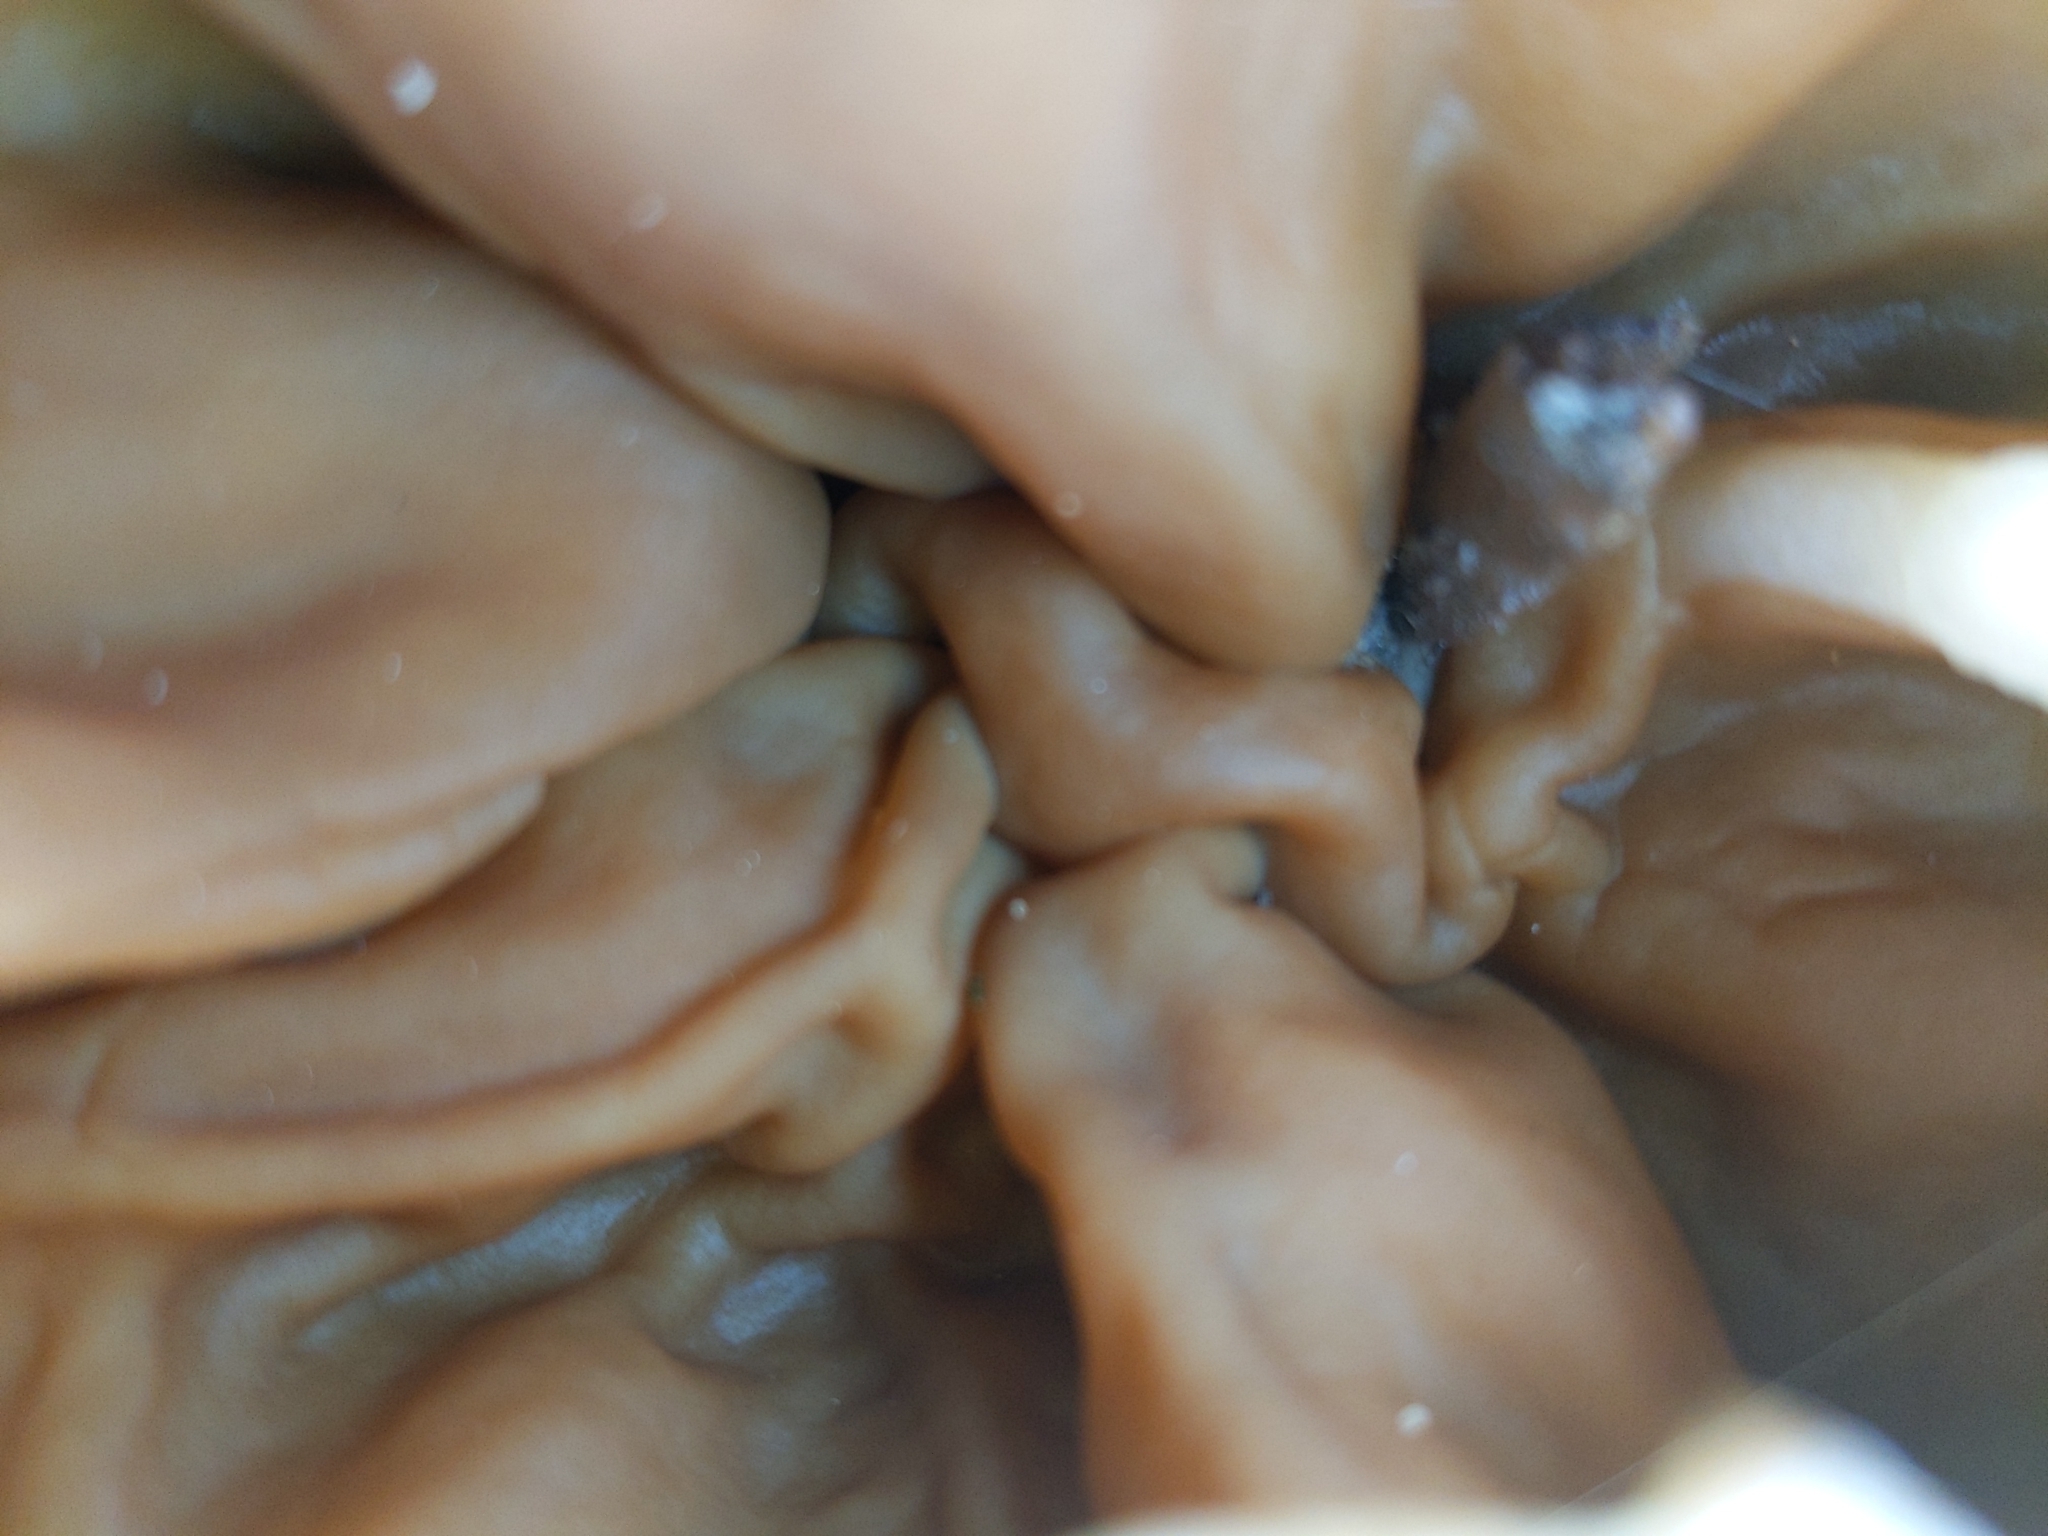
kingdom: Fungi
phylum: Ascomycota
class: Pezizomycetes
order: Pezizales
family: Morchellaceae
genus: Disciotis
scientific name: Disciotis venosa
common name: Bleach cup
